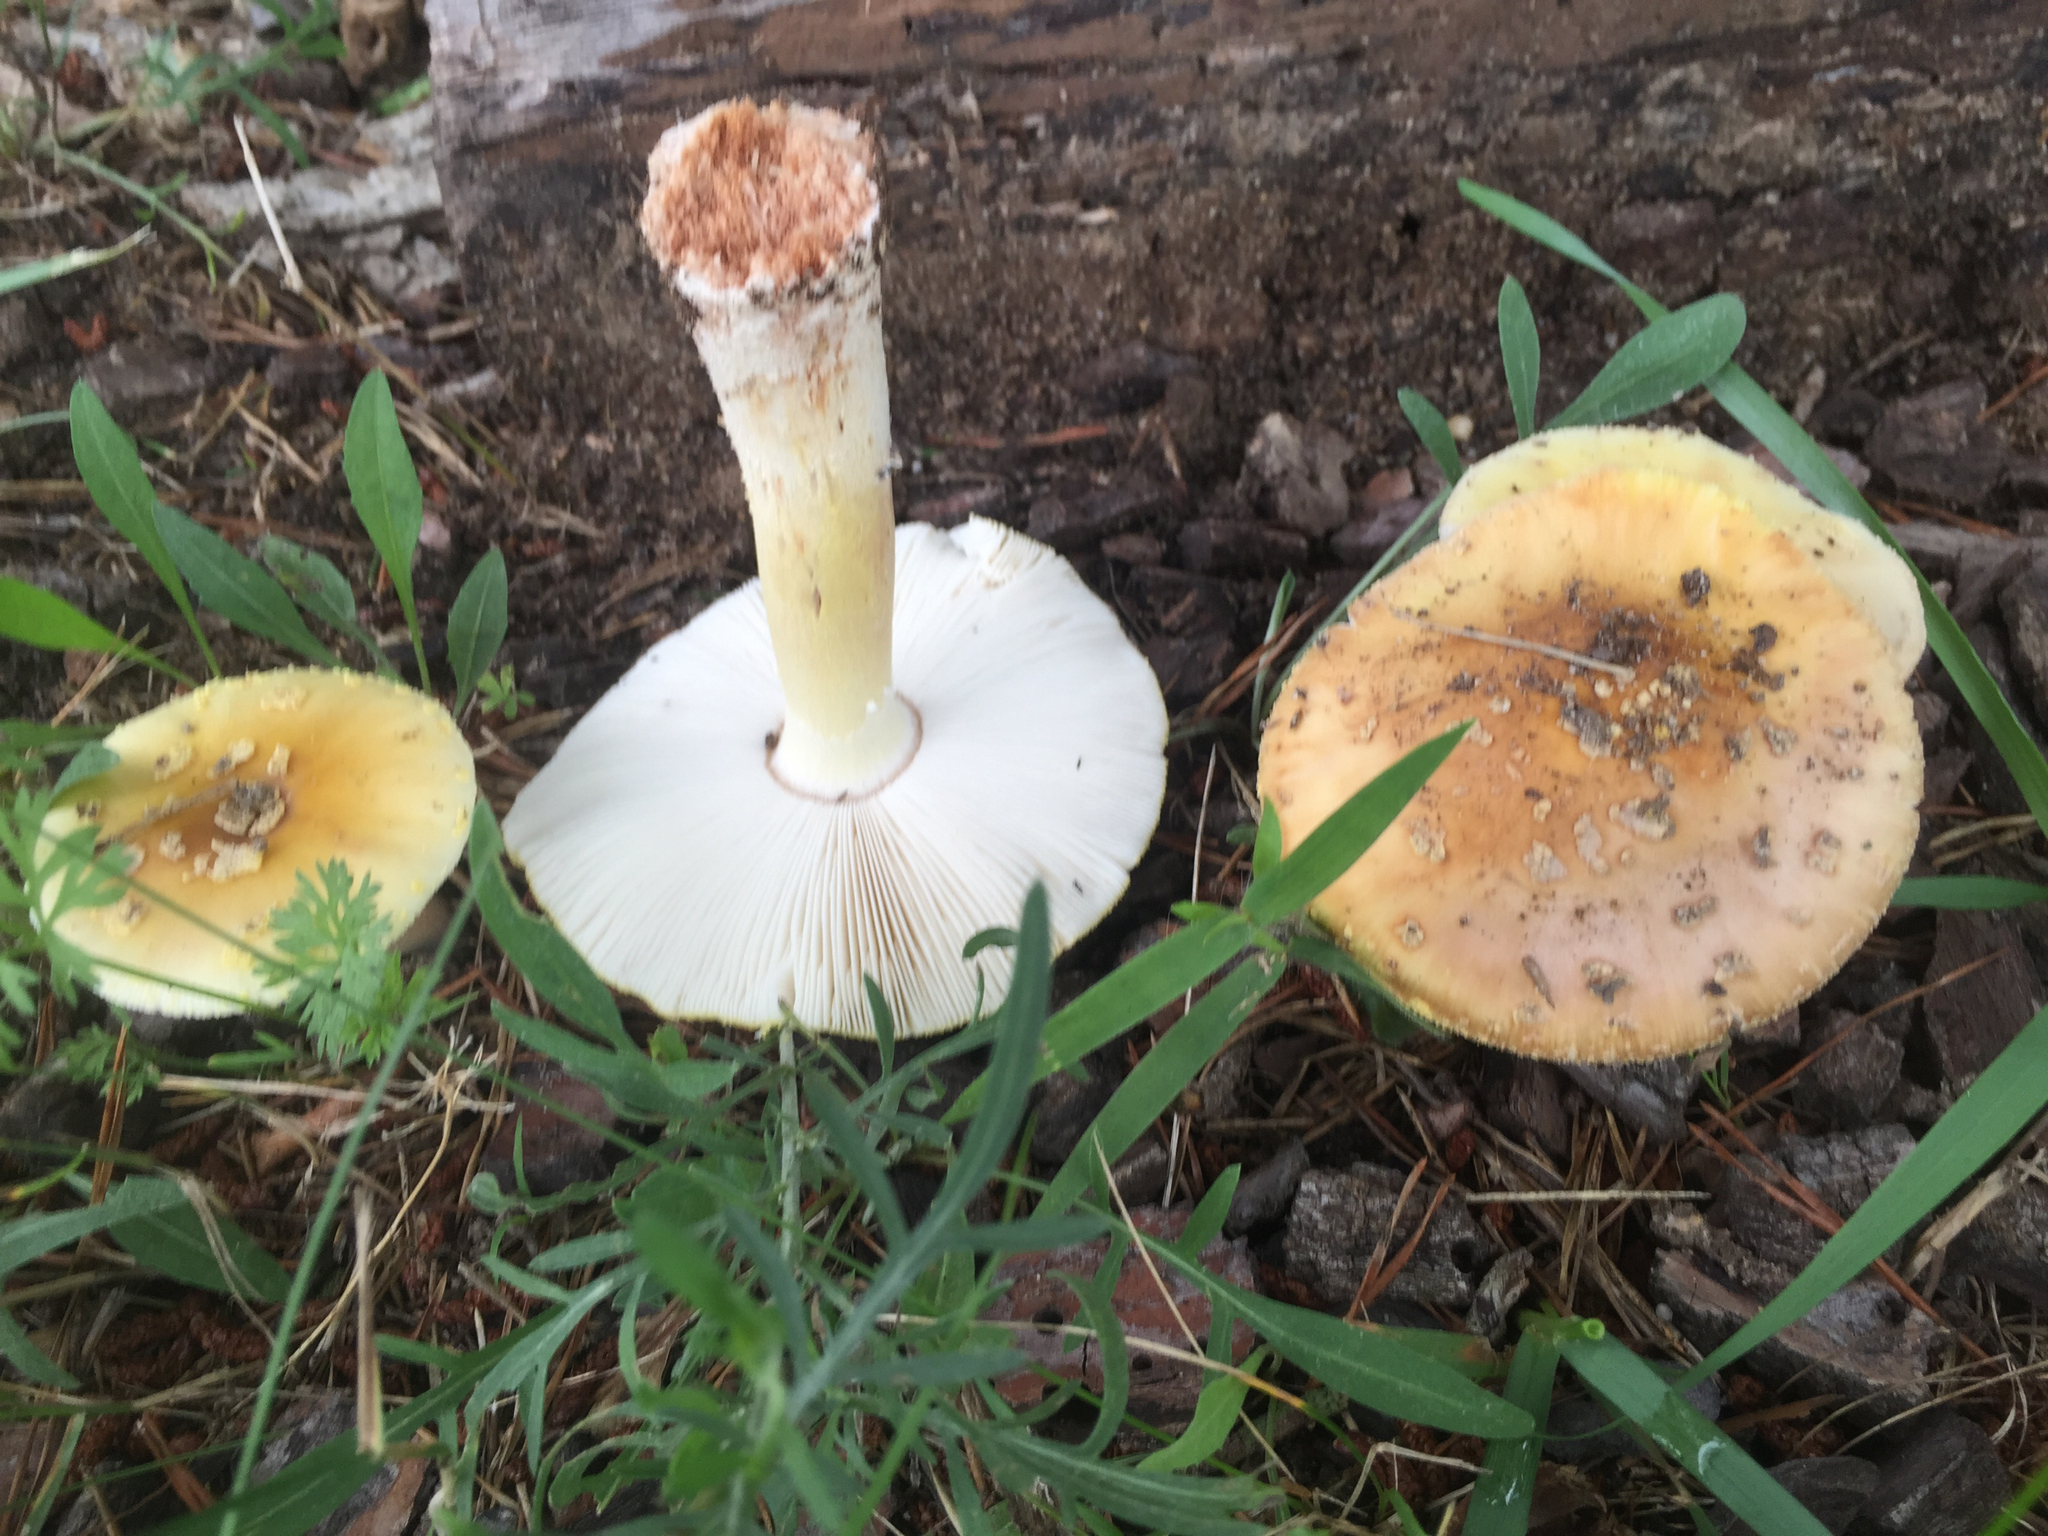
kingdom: Fungi
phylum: Basidiomycota
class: Agaricomycetes
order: Agaricales
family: Amanitaceae
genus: Amanita
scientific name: Amanita muscaria
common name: Fly agaric
